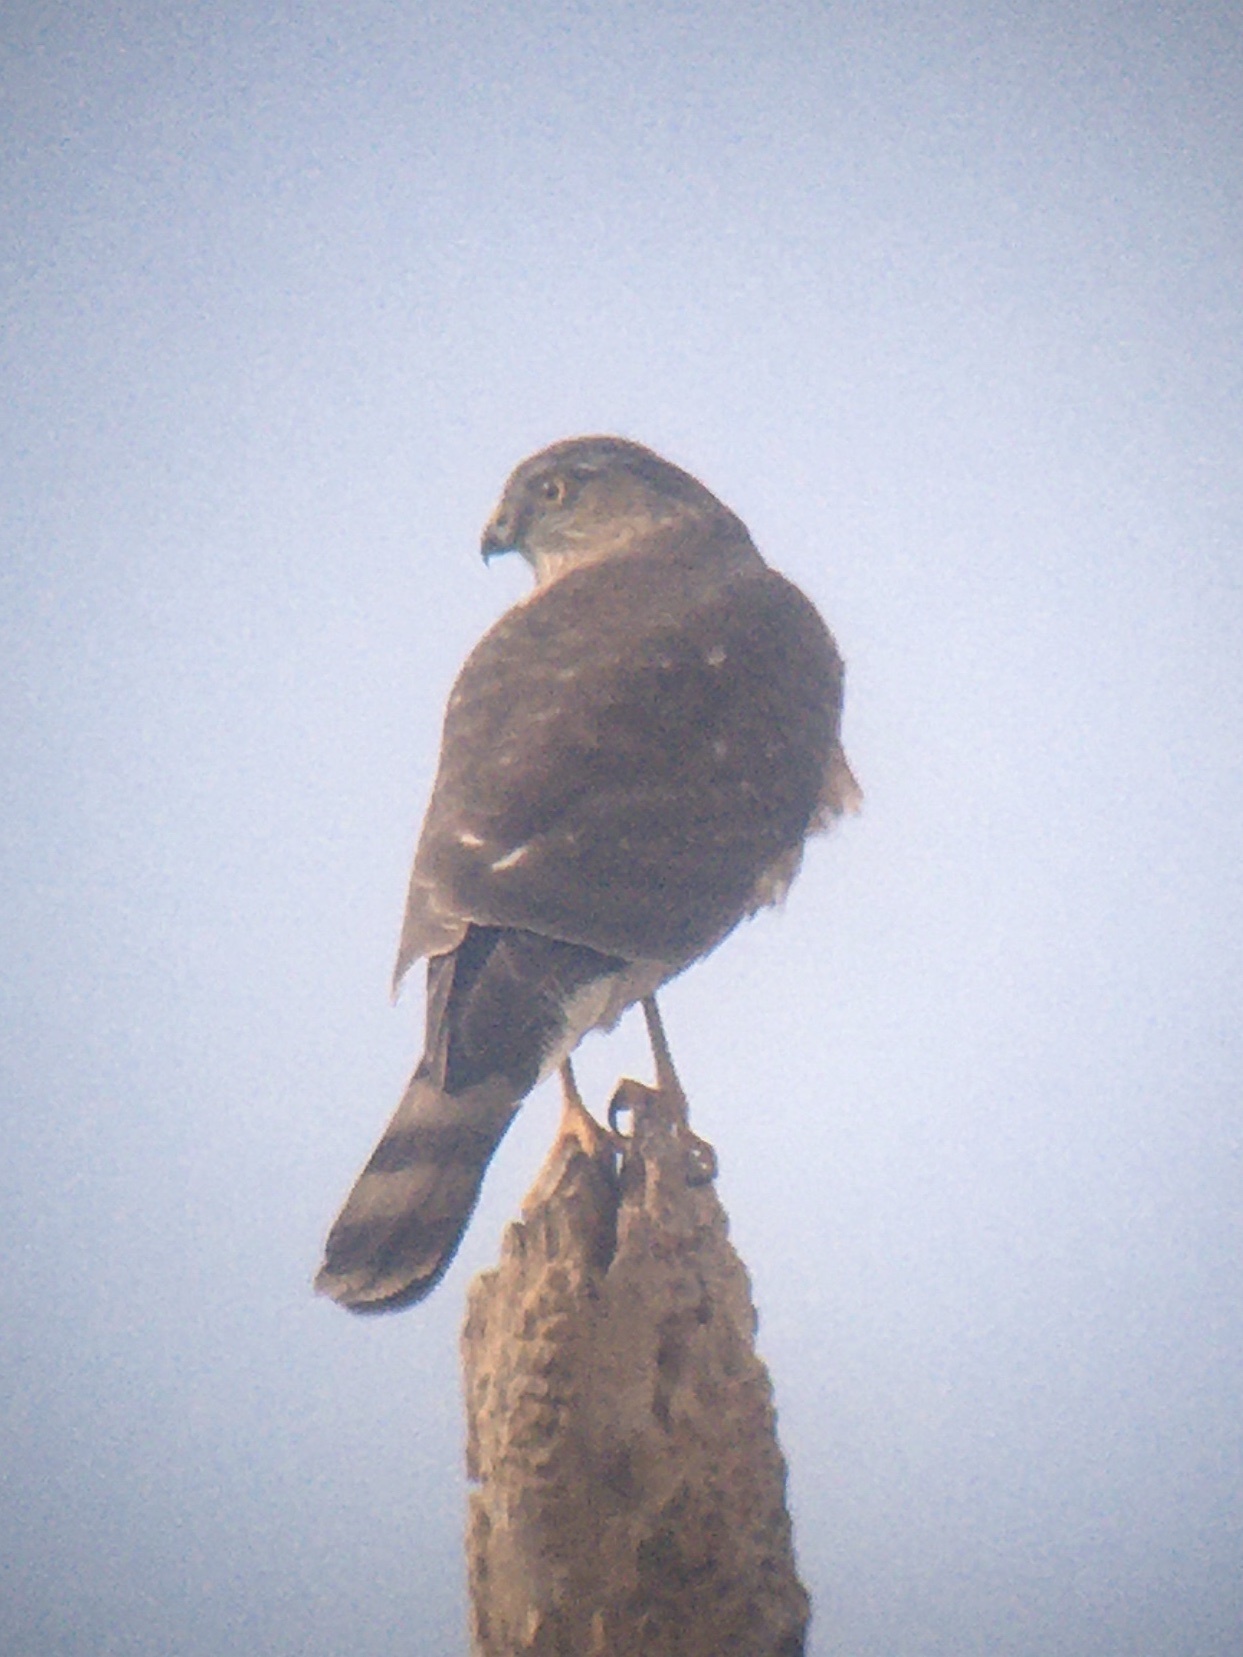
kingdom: Animalia
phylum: Chordata
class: Aves
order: Accipitriformes
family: Accipitridae
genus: Accipiter
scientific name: Accipiter striatus
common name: Sharp-shinned hawk
